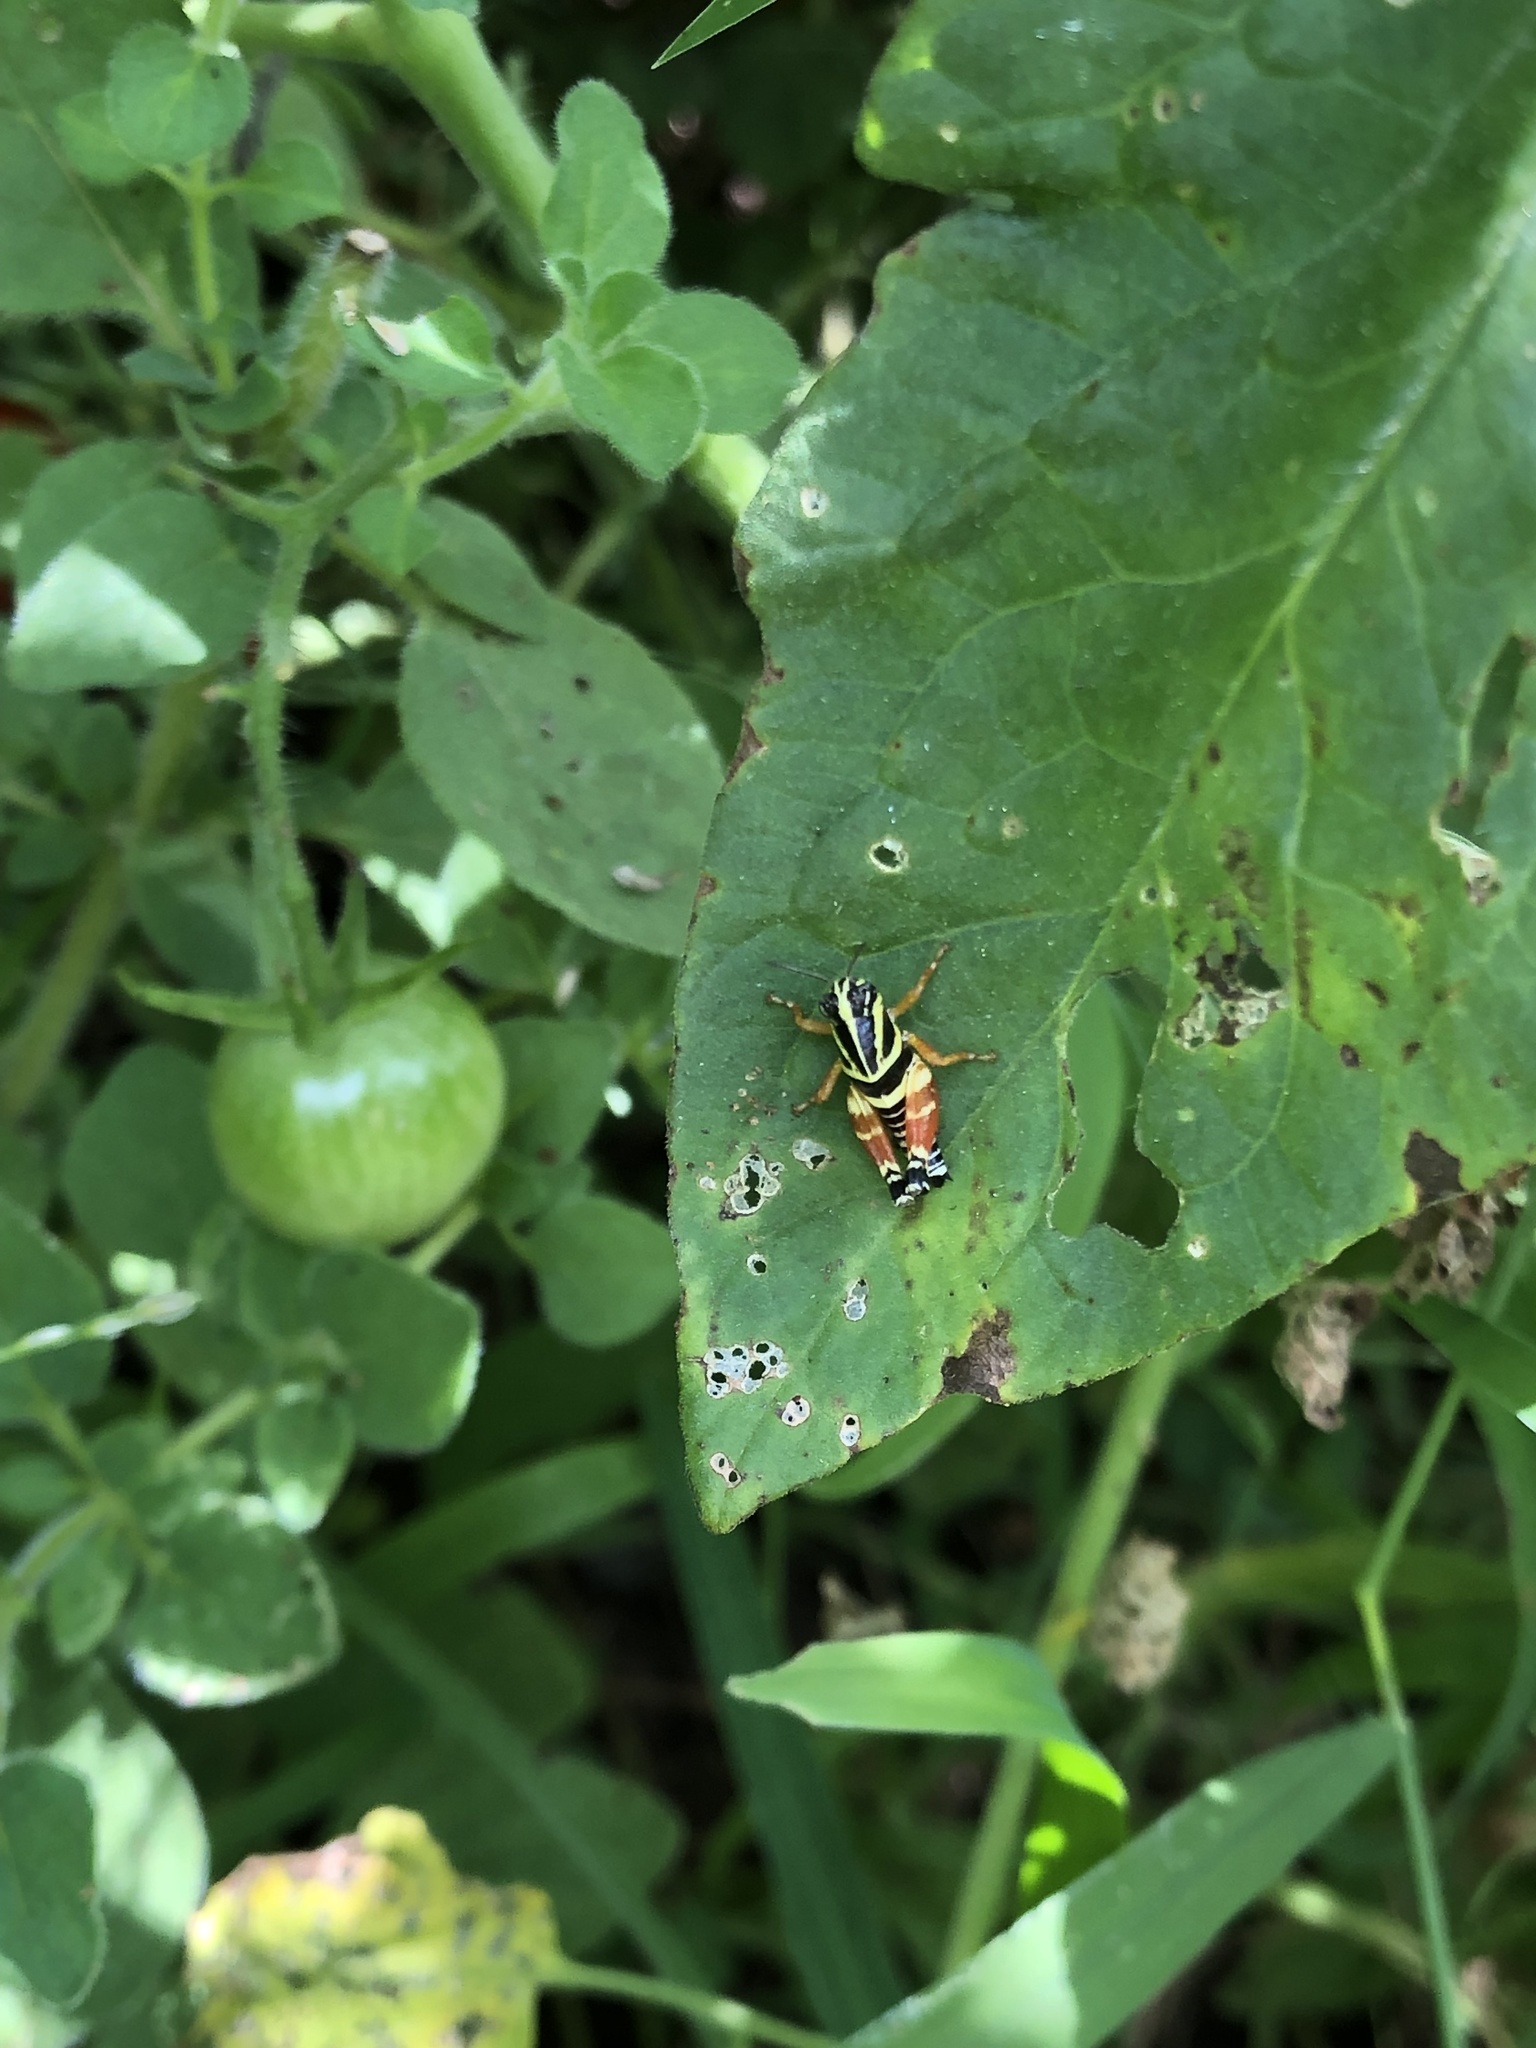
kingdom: Animalia
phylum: Arthropoda
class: Insecta
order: Orthoptera
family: Acrididae
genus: Aidemona
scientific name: Aidemona azteca
